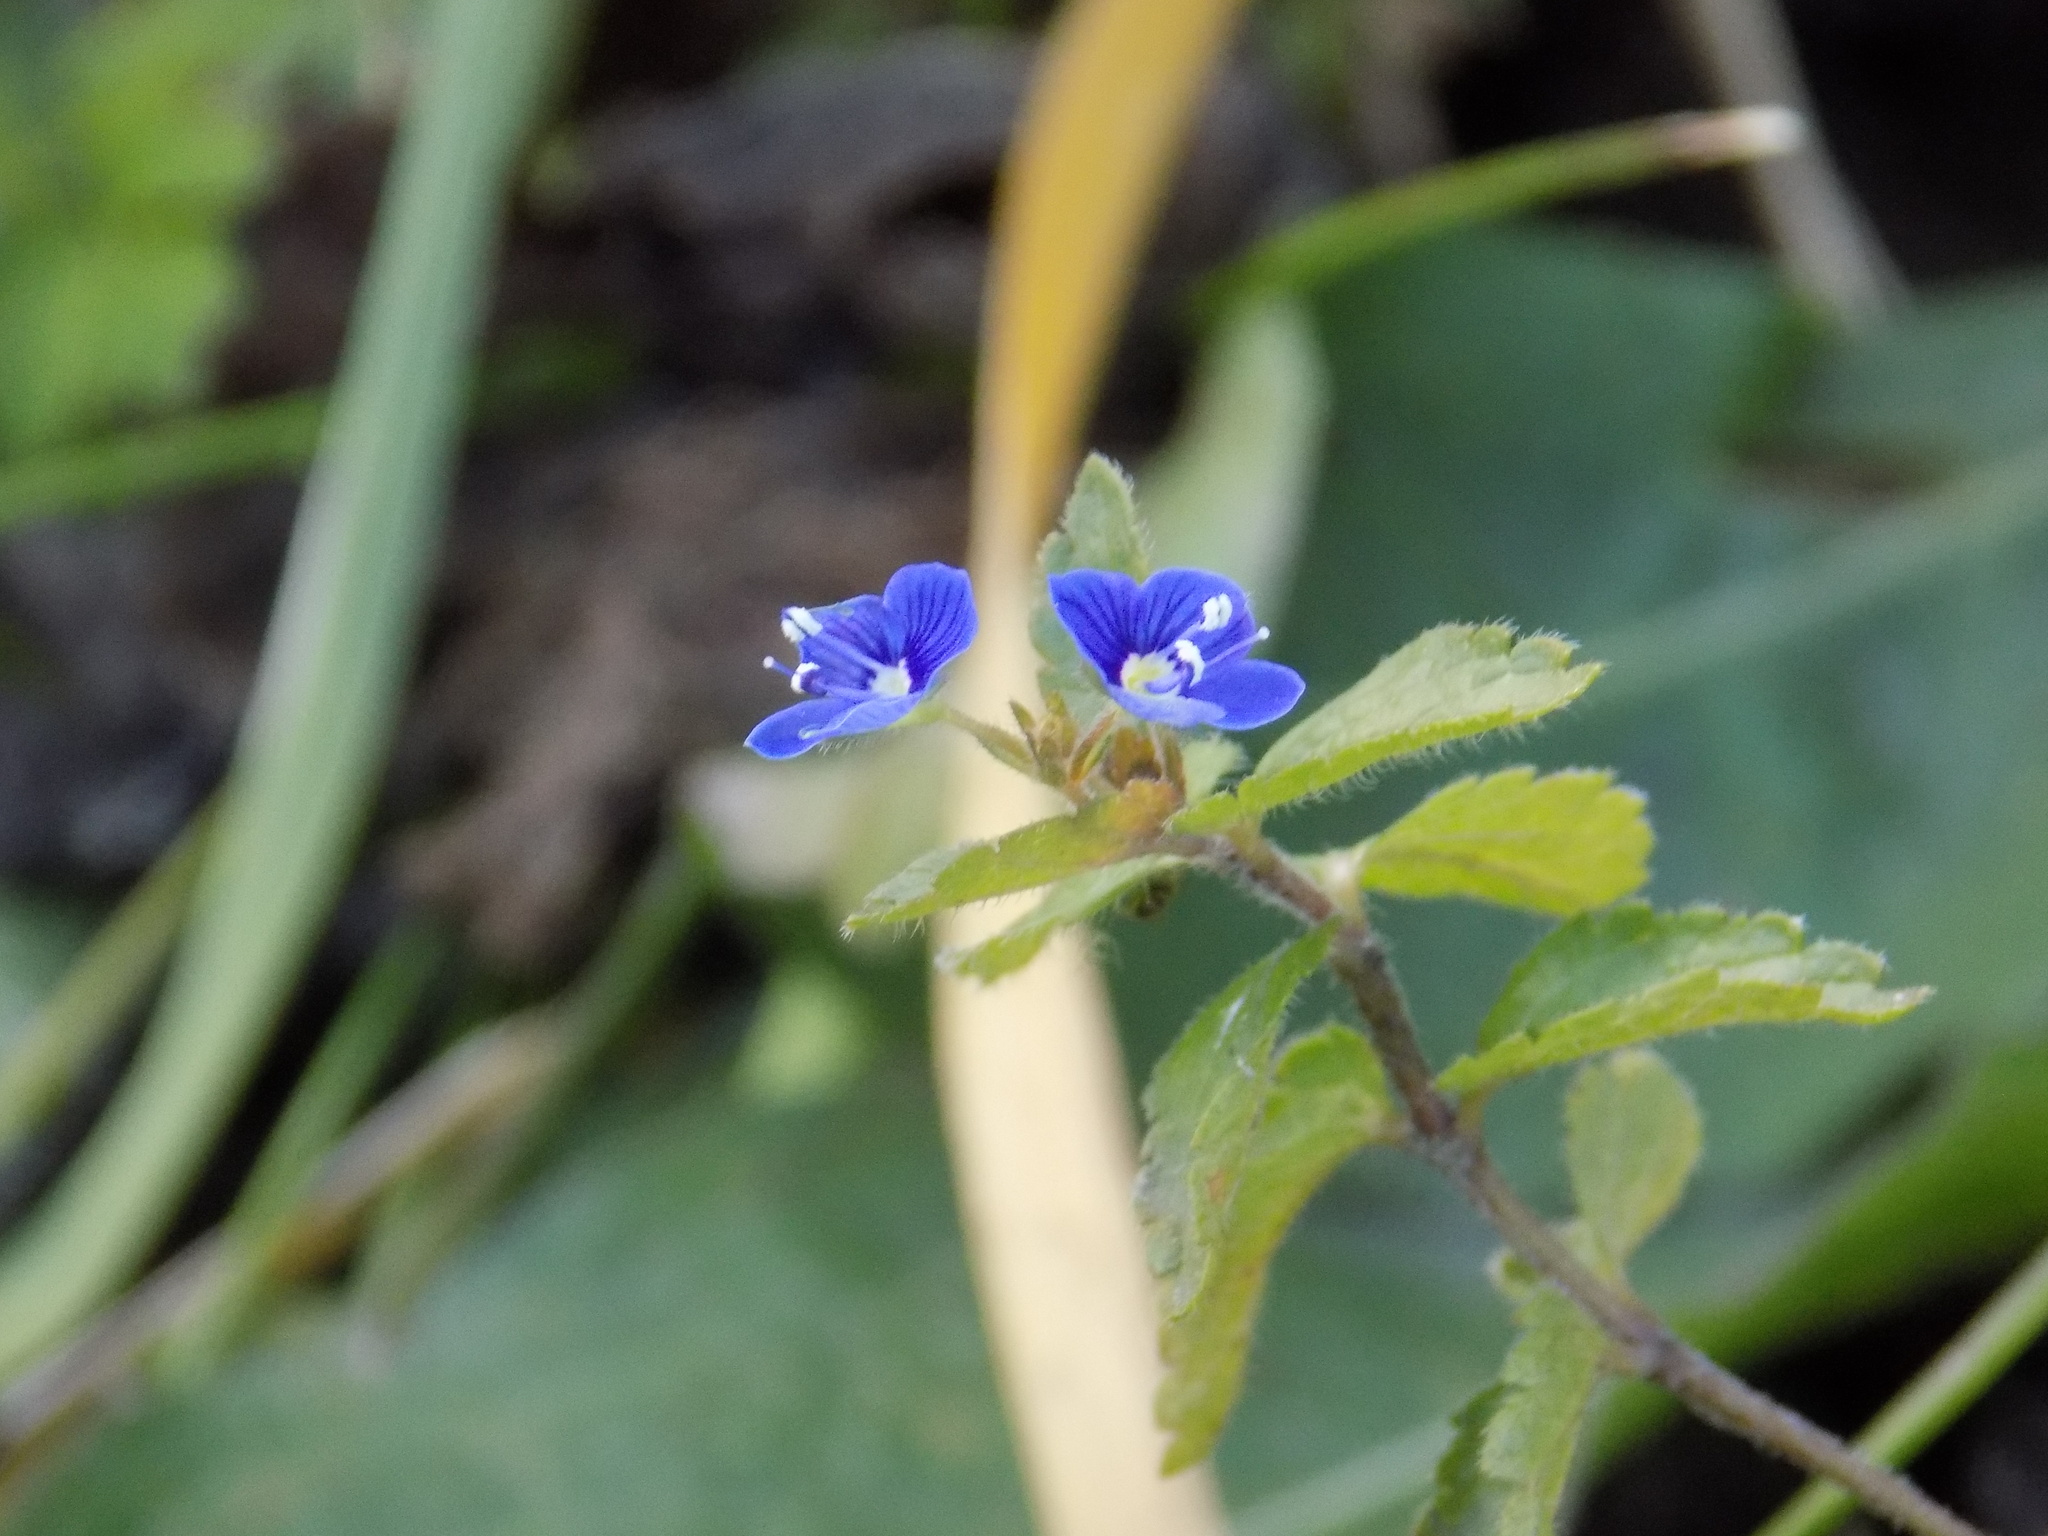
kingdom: Plantae
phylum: Tracheophyta
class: Magnoliopsida
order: Lamiales
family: Plantaginaceae
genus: Veronica
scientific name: Veronica chamaedrys
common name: Germander speedwell
